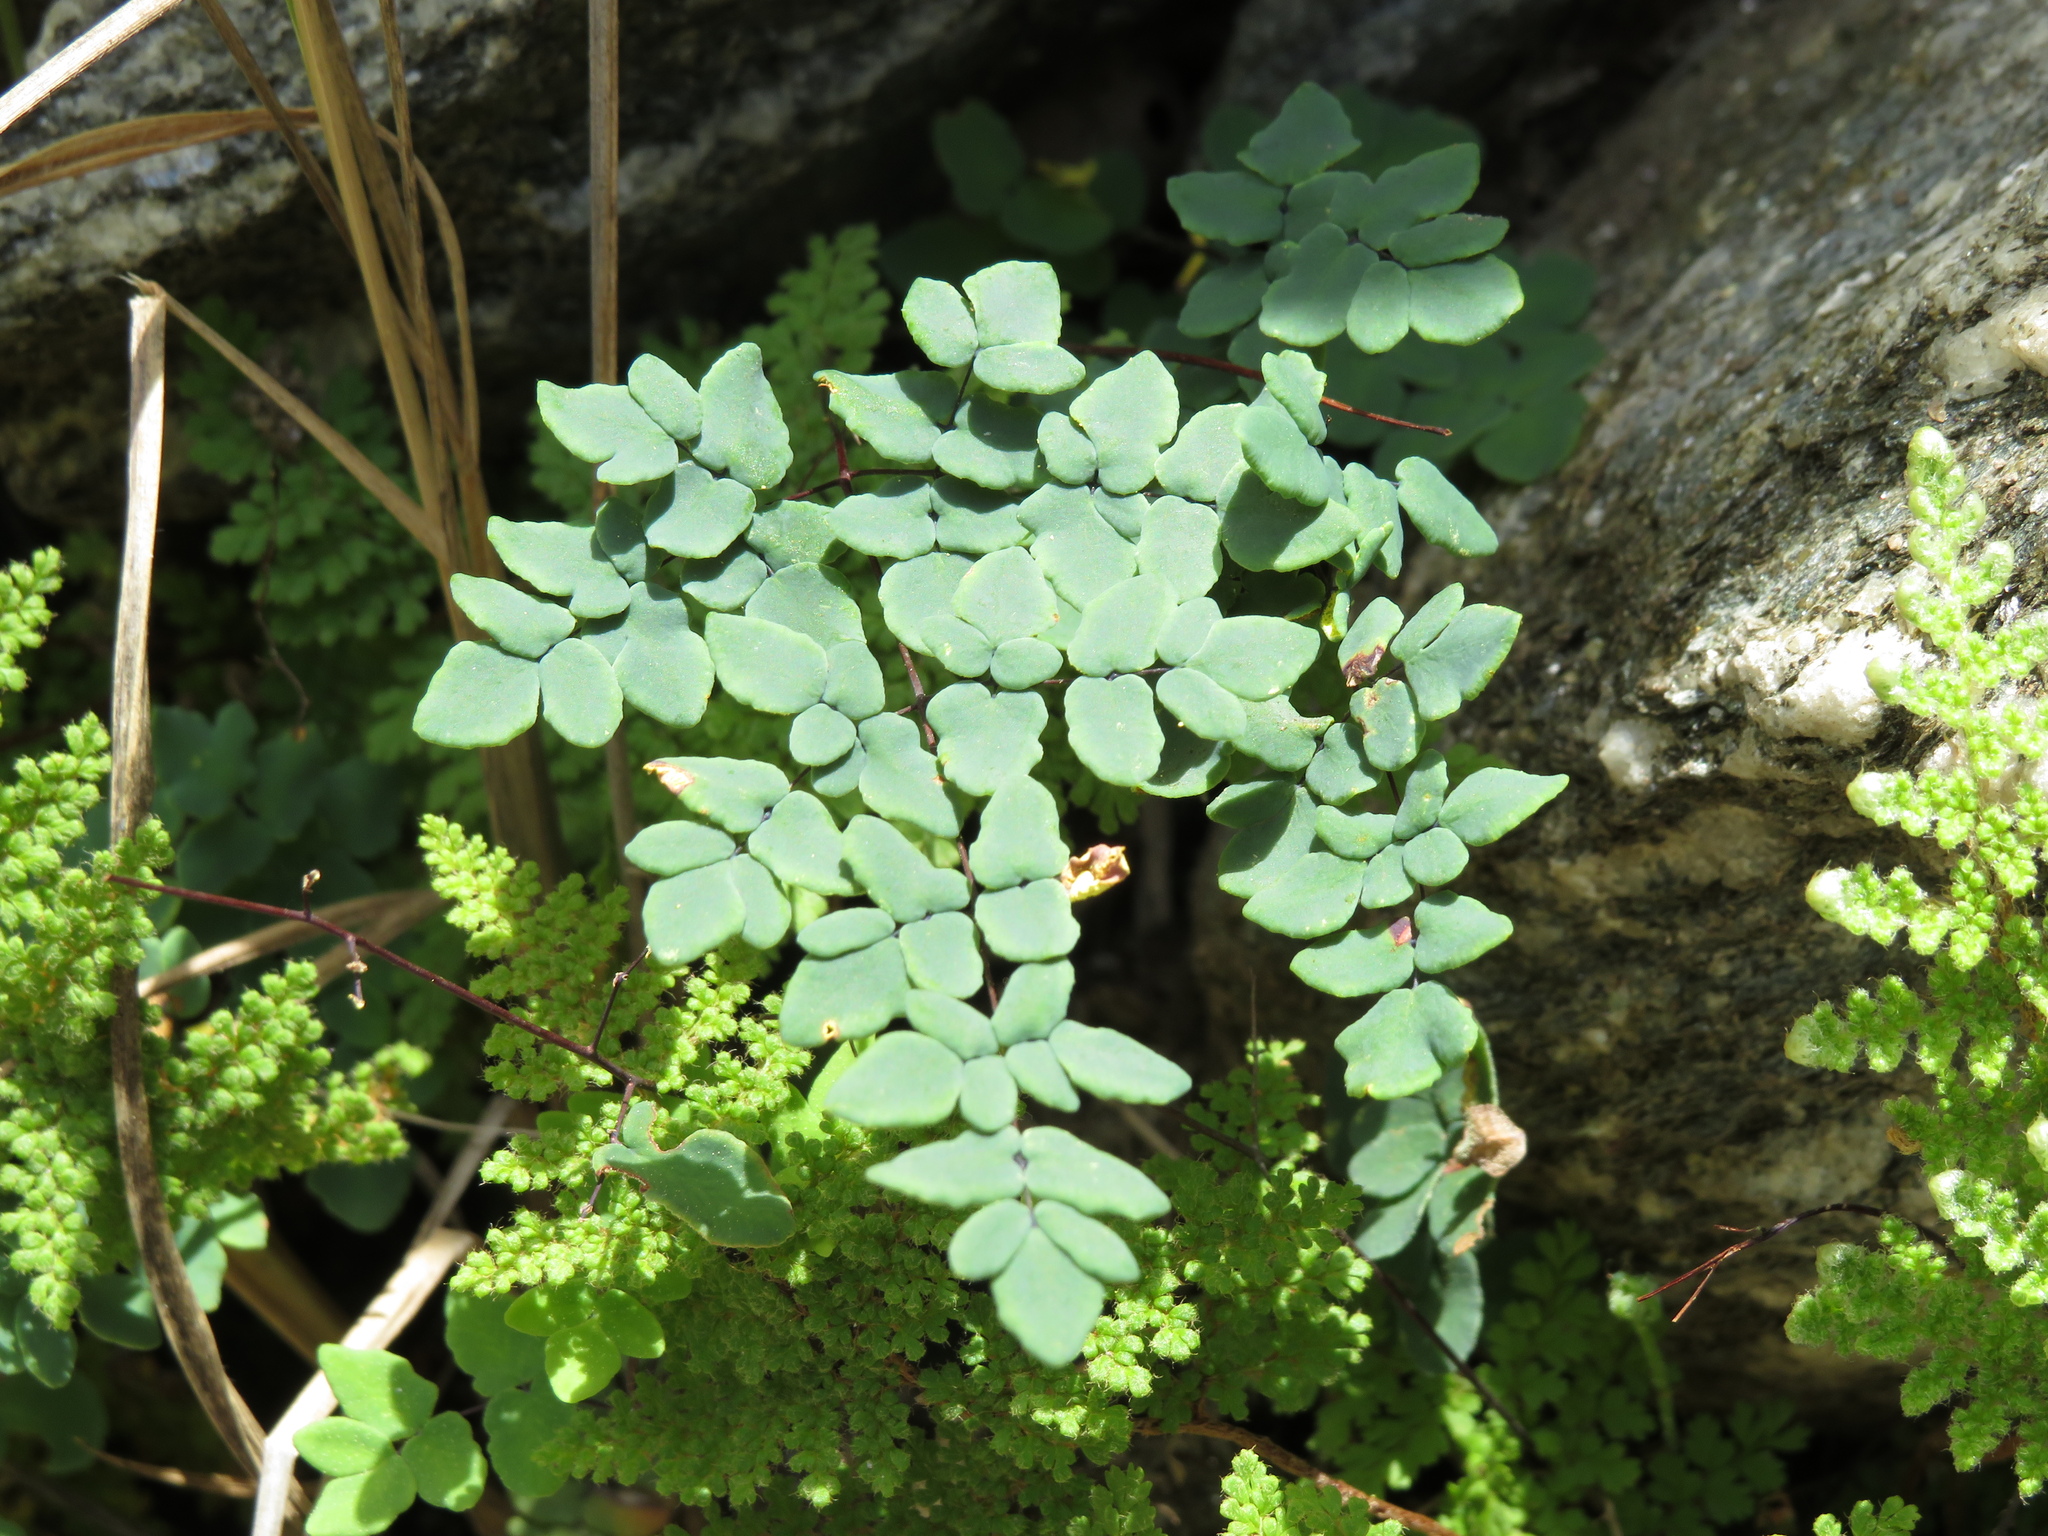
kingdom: Plantae
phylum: Tracheophyta
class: Polypodiopsida
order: Polypodiales
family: Pteridaceae
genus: Argyrochosma
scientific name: Argyrochosma nivea
